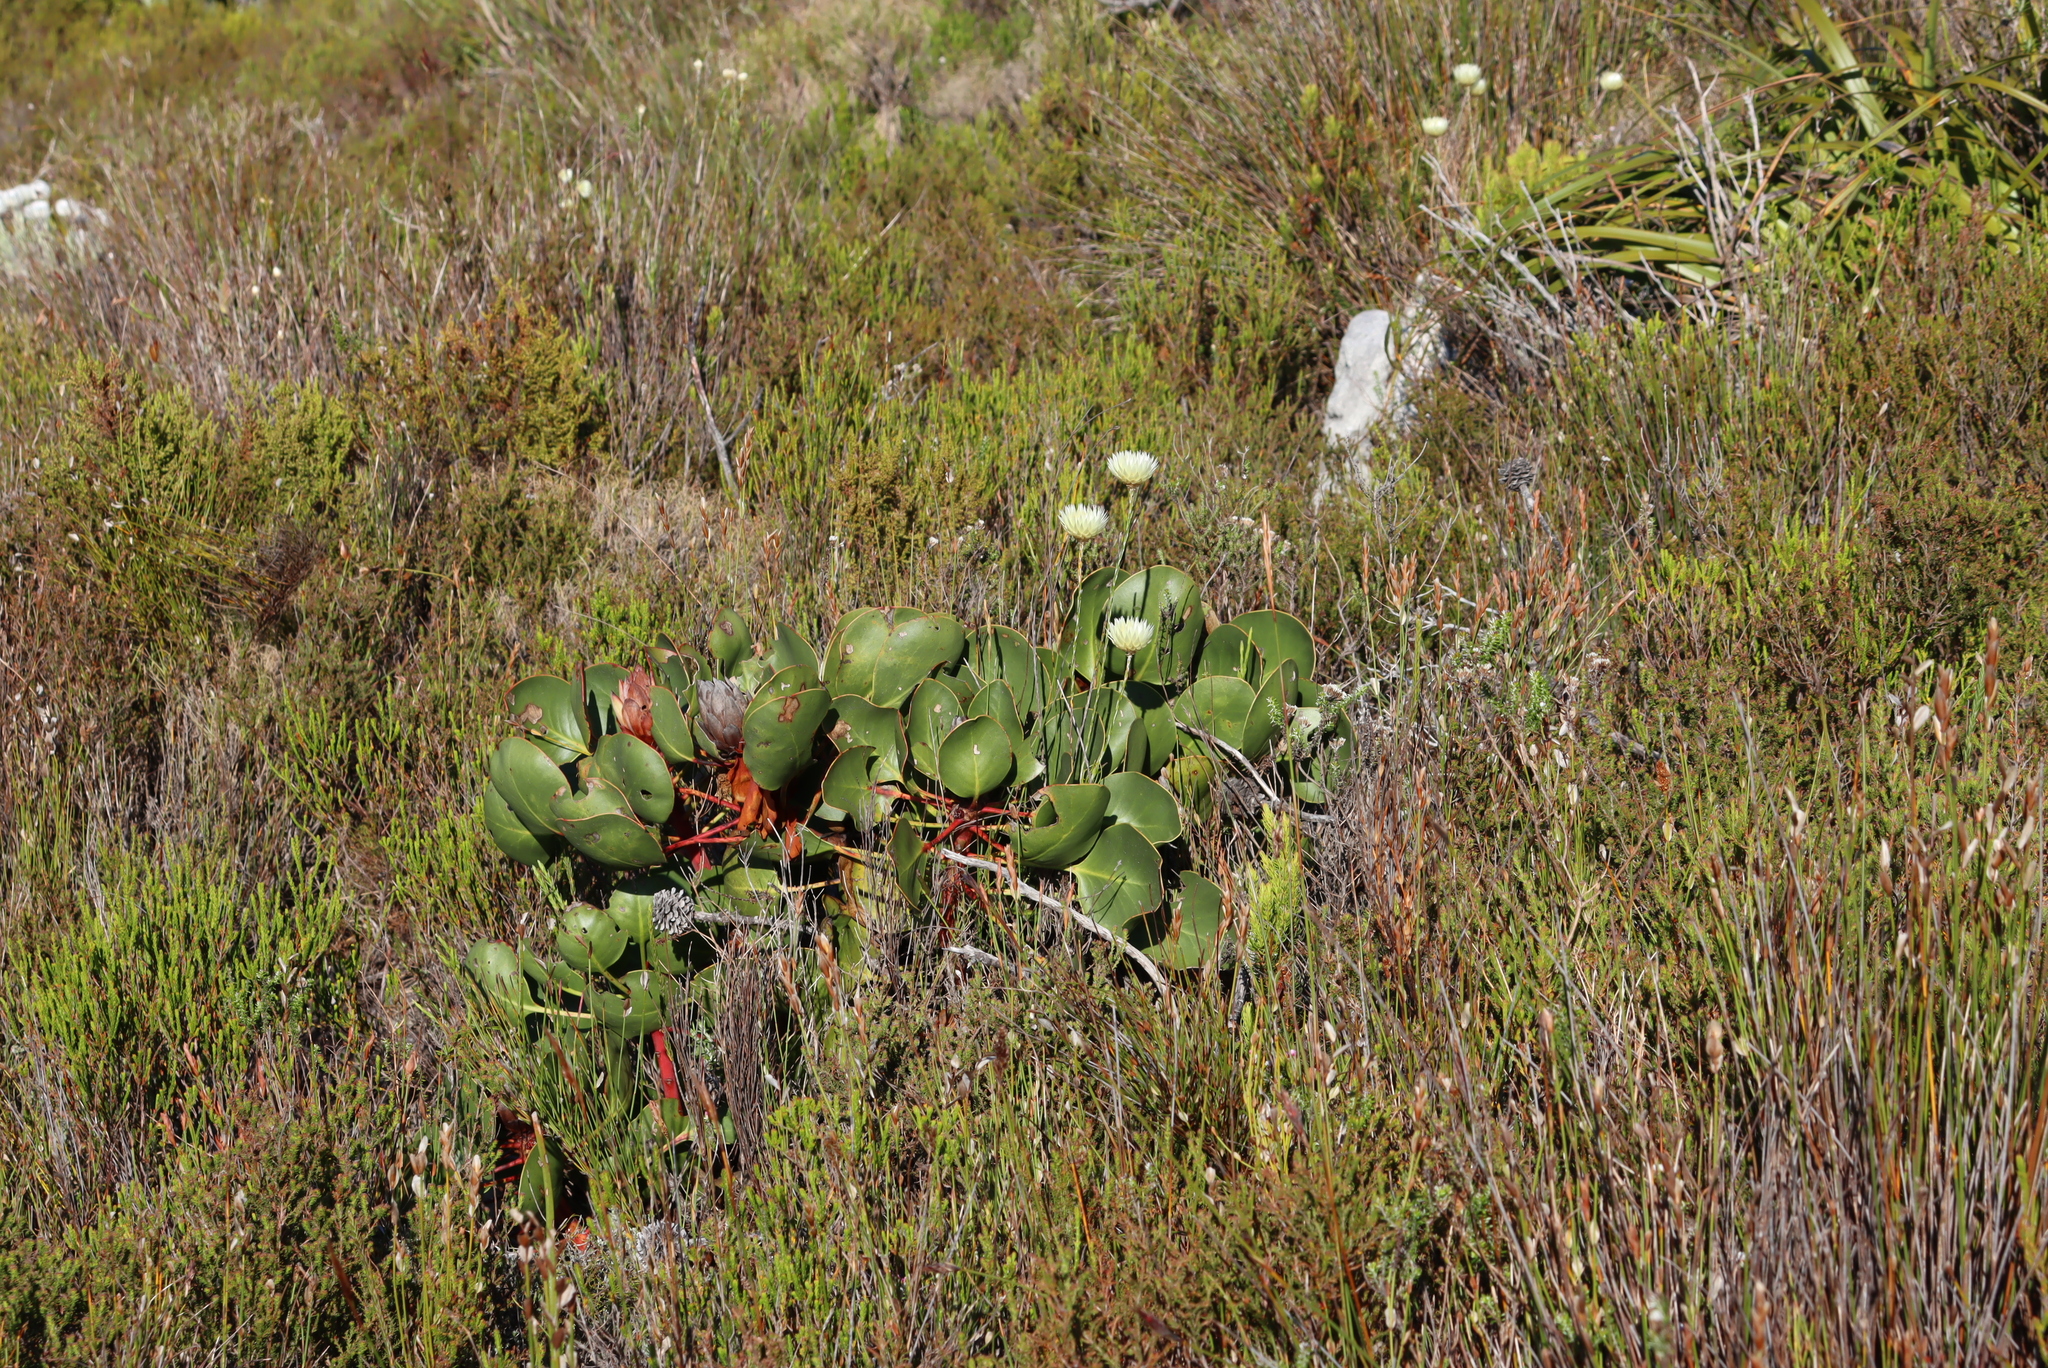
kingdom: Plantae
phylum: Tracheophyta
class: Magnoliopsida
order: Proteales
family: Proteaceae
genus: Protea
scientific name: Protea cynaroides
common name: King protea
